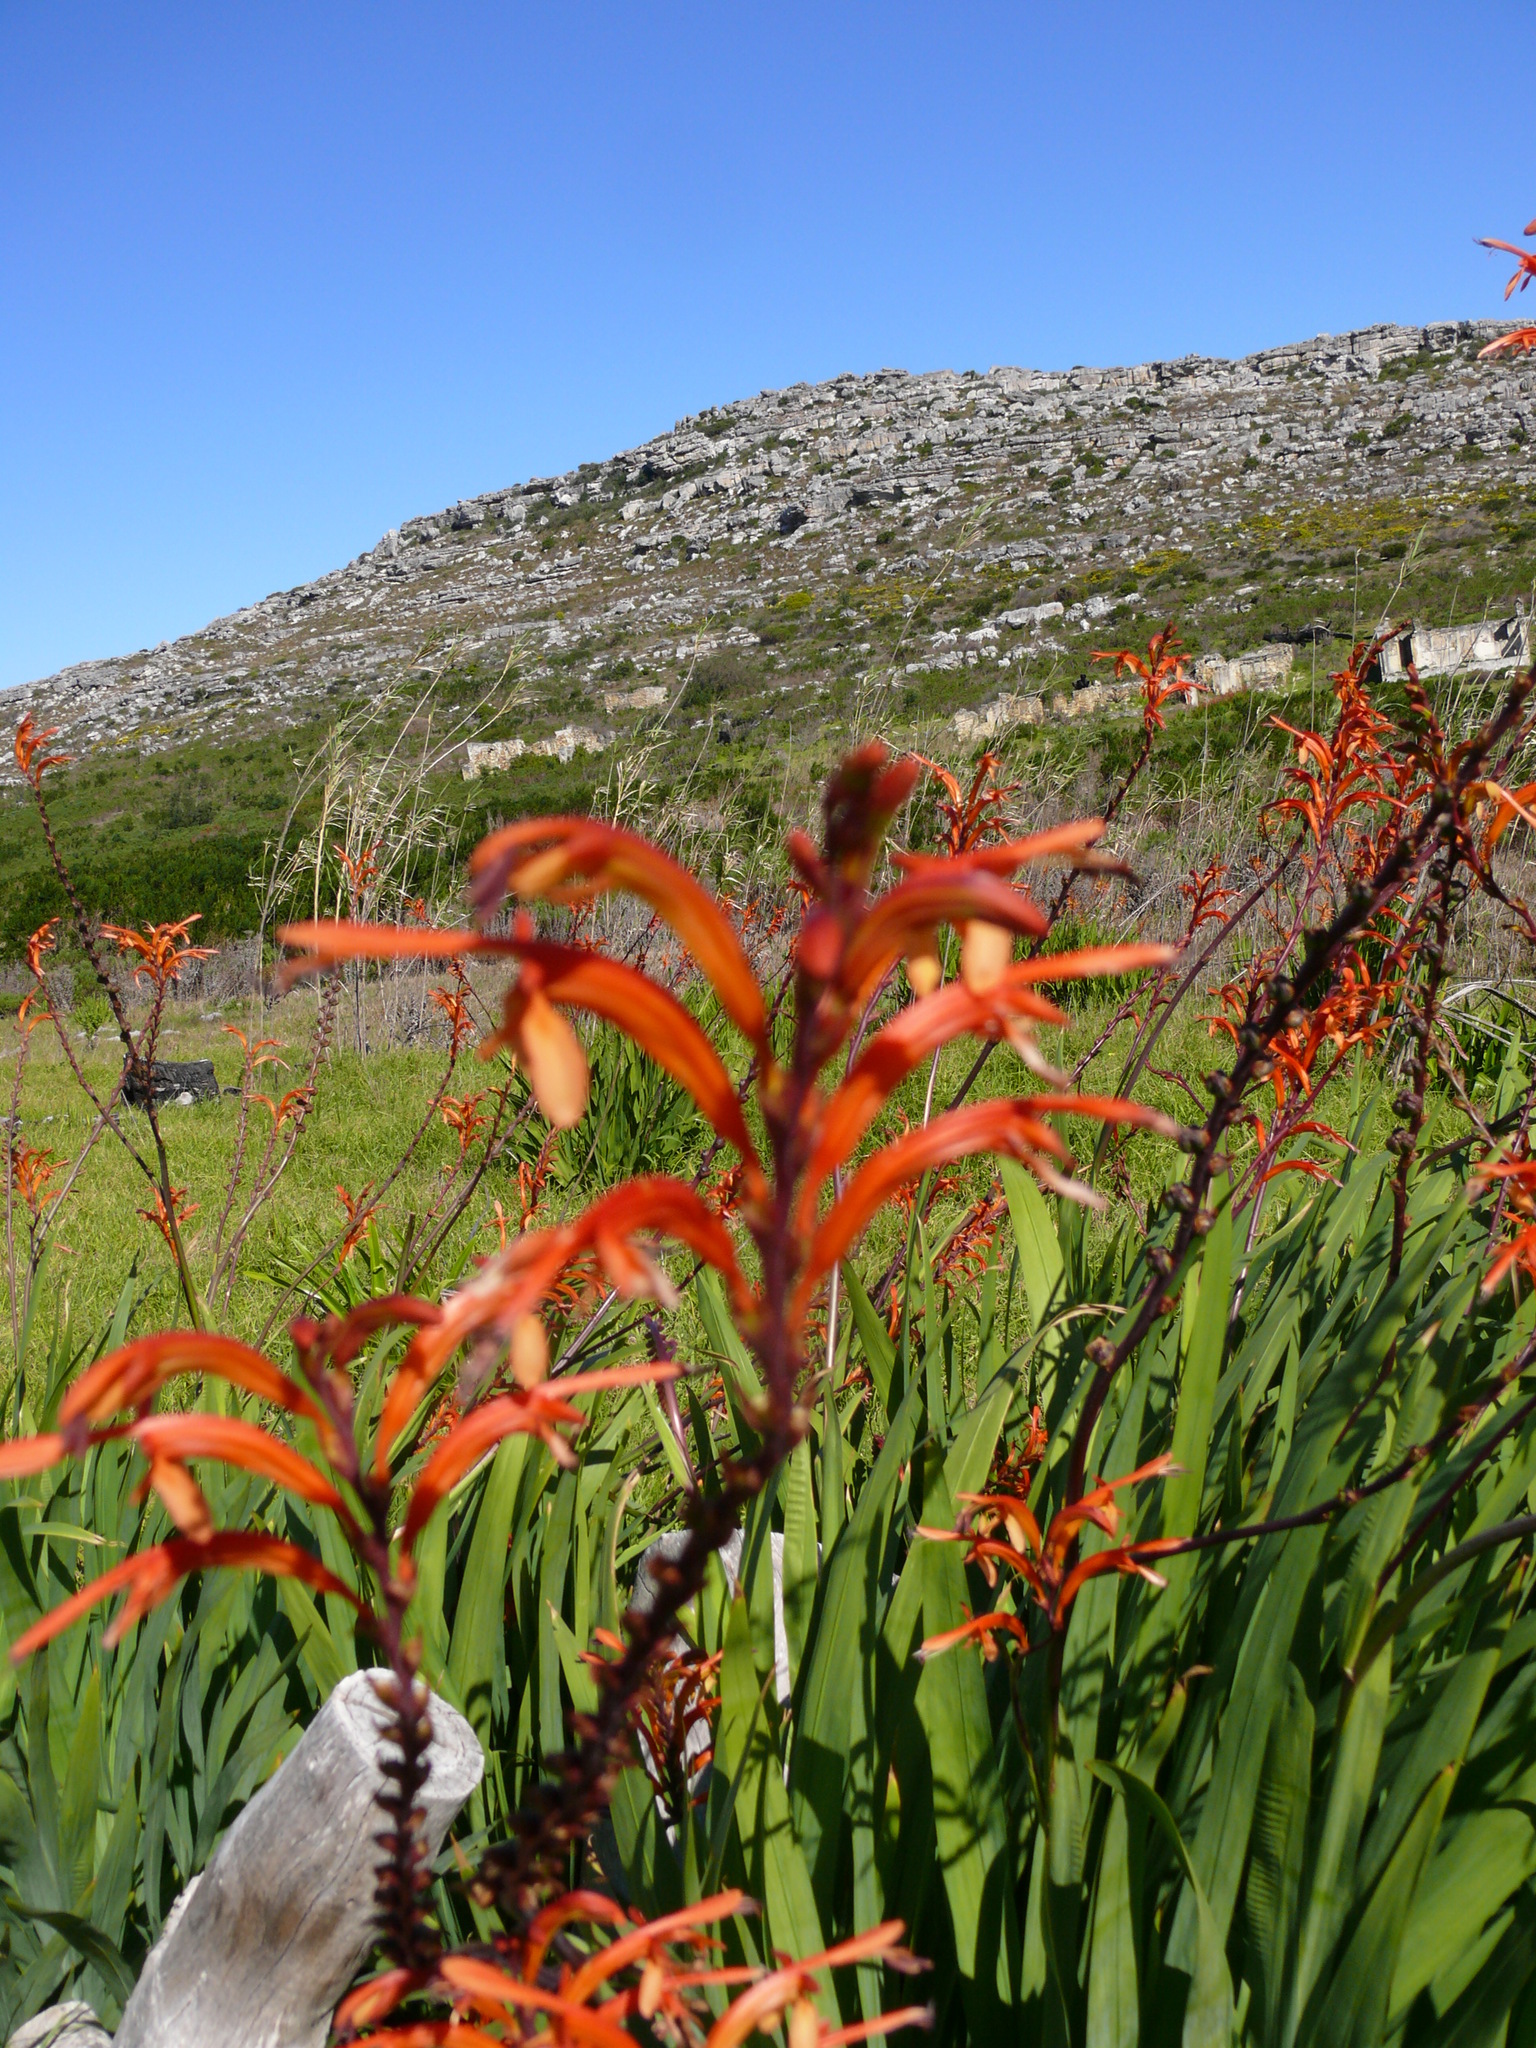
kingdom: Plantae
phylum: Tracheophyta
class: Liliopsida
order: Asparagales
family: Iridaceae
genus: Chasmanthe
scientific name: Chasmanthe floribunda
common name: African cornflag
